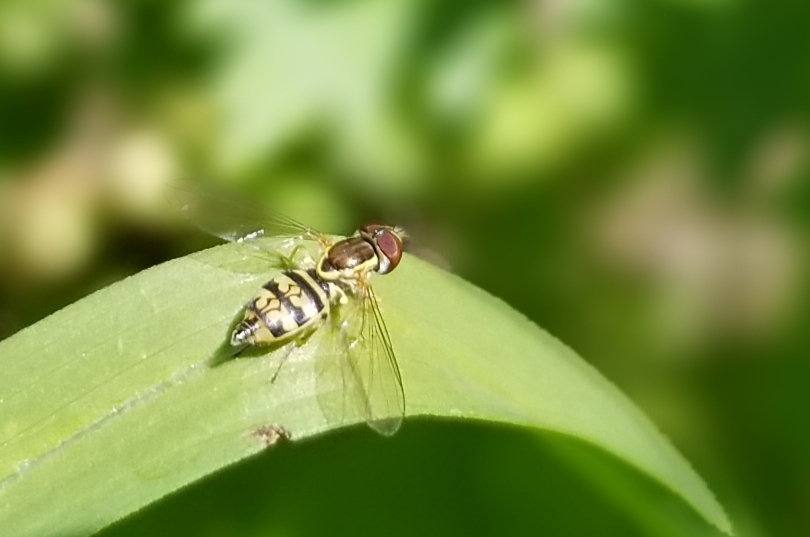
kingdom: Animalia
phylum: Arthropoda
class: Insecta
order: Diptera
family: Syrphidae
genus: Toxomerus
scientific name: Toxomerus geminatus
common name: Eastern calligrapher
